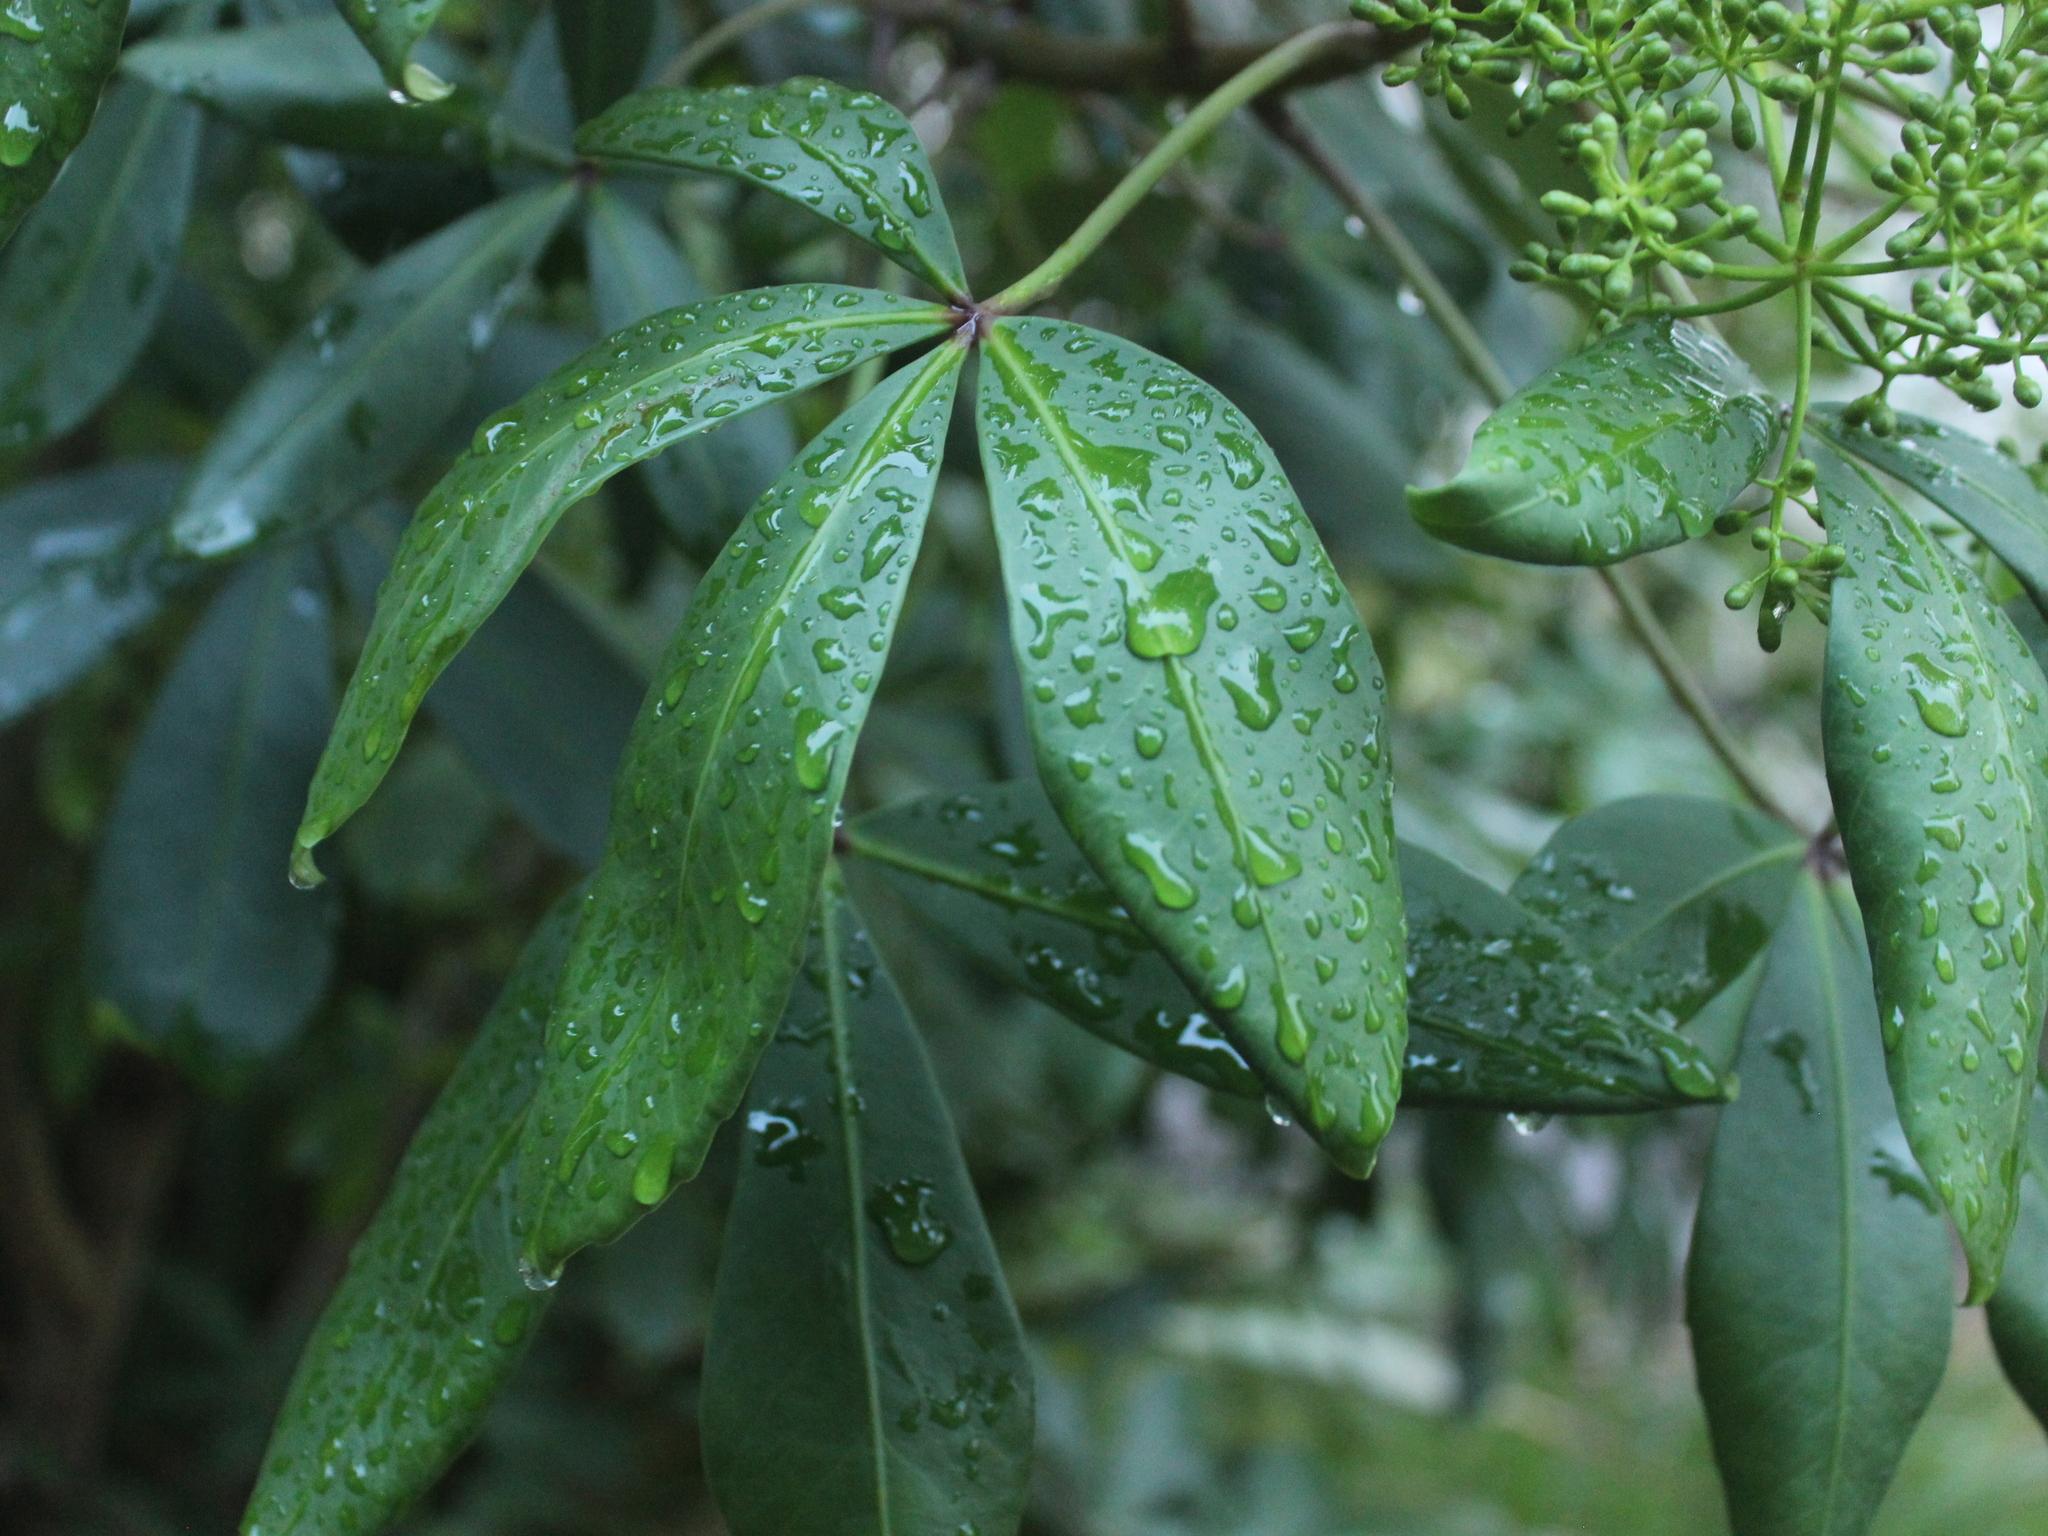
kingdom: Plantae
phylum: Tracheophyta
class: Magnoliopsida
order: Apiales
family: Araliaceae
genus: Pseudopanax
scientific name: Pseudopanax lessonii
